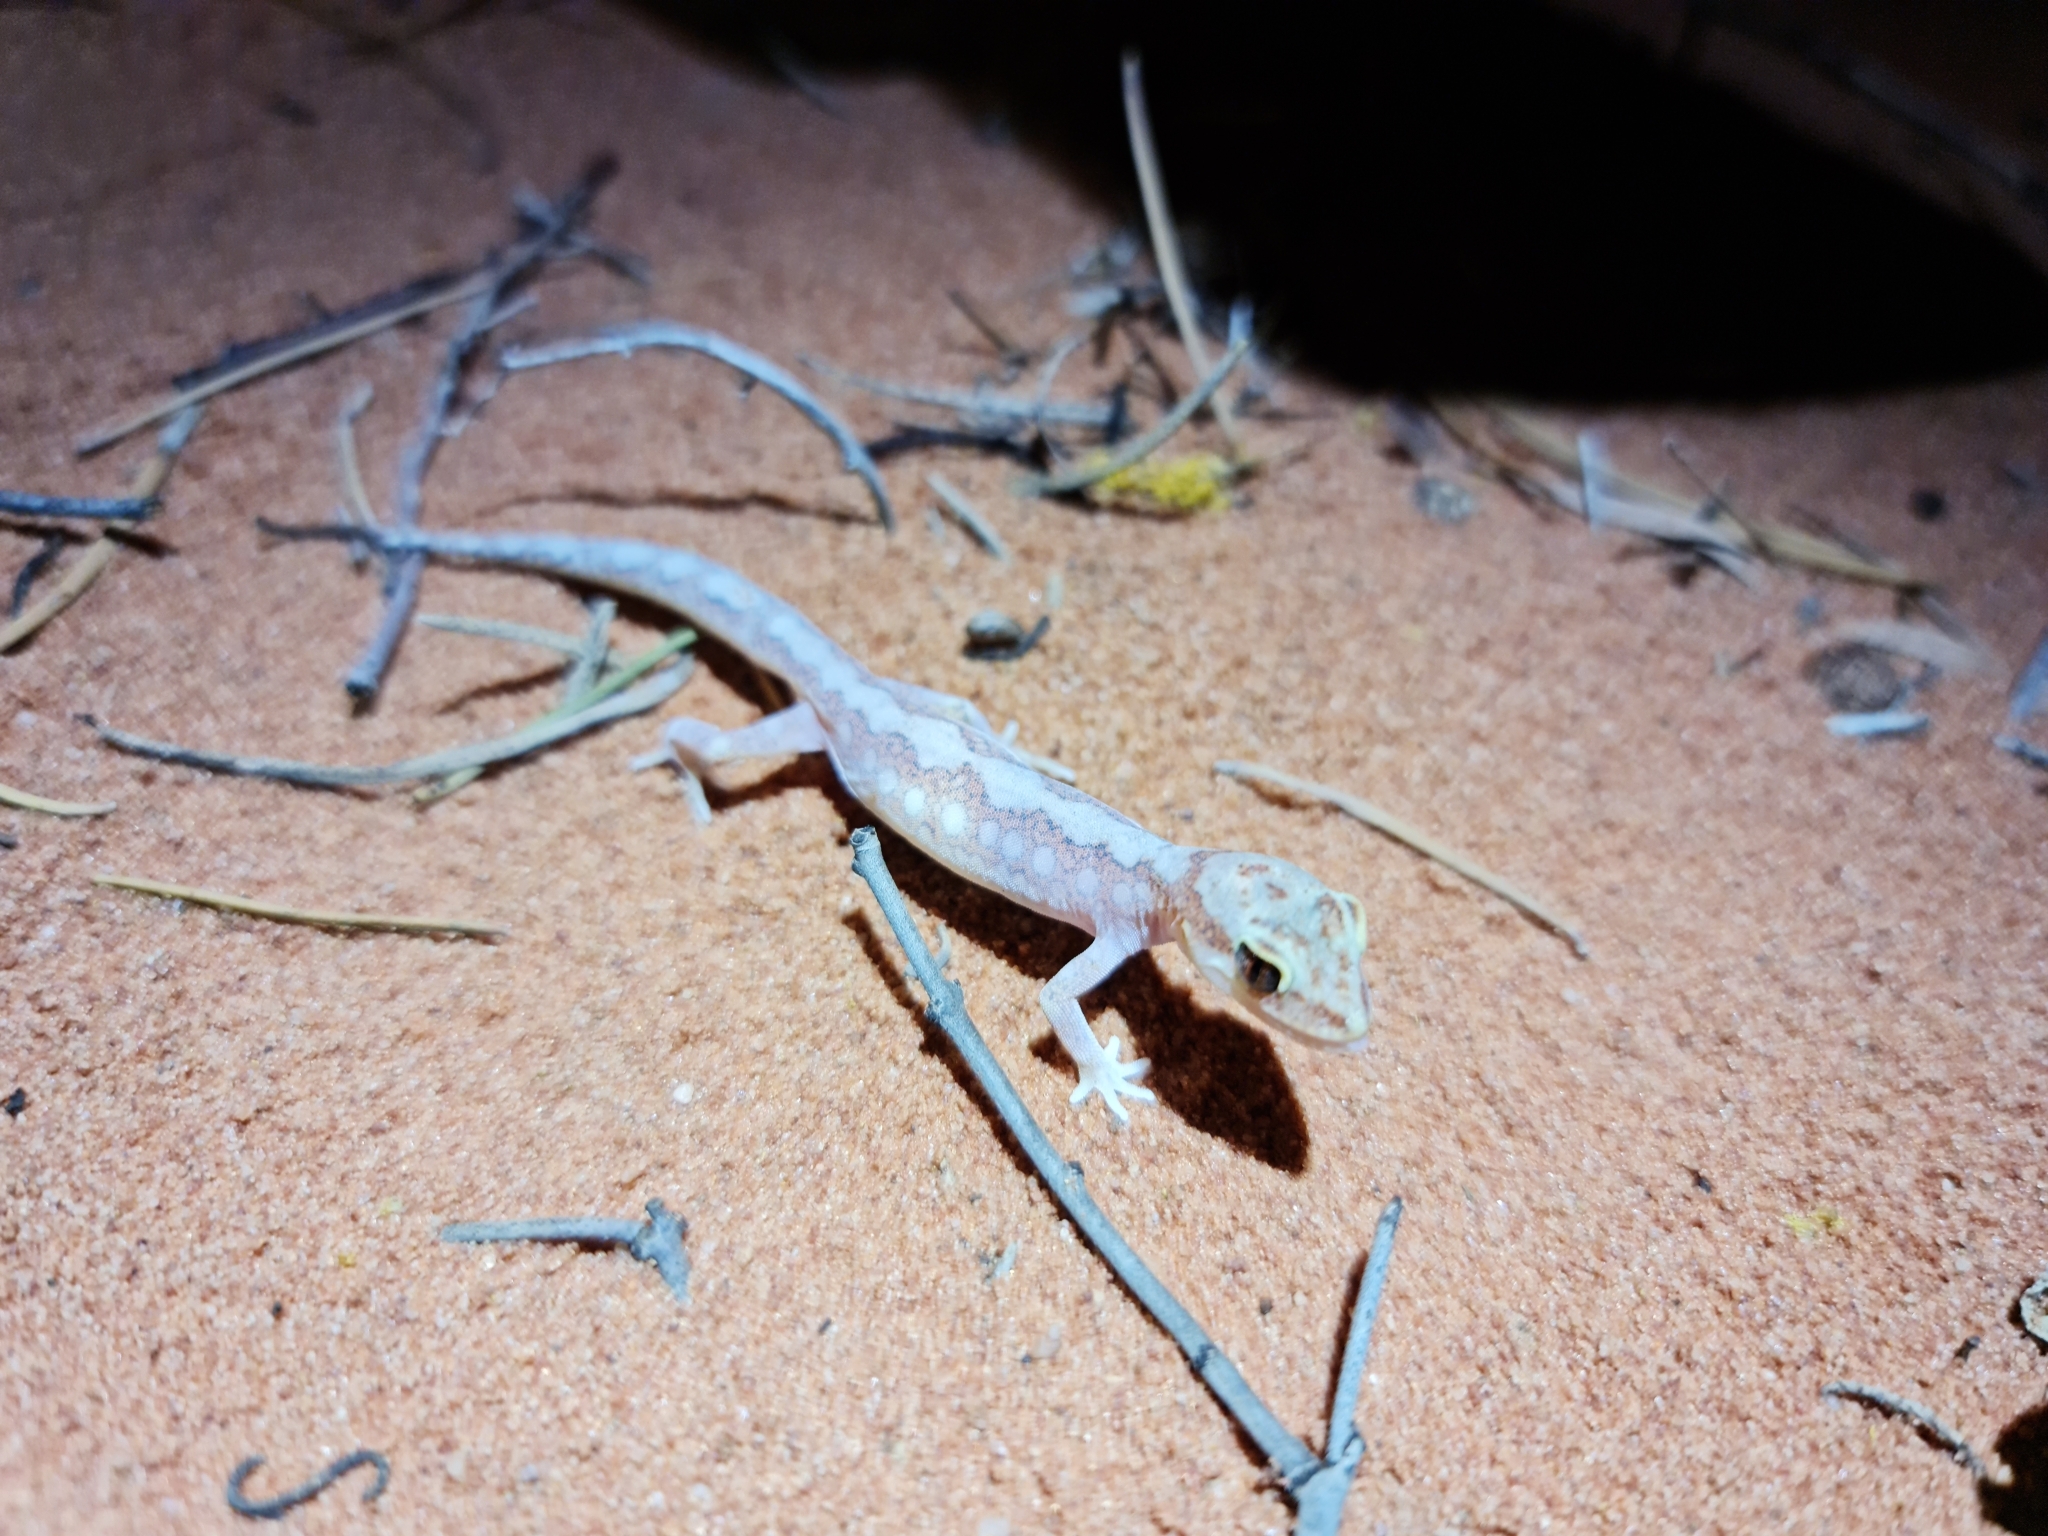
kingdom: Animalia
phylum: Chordata
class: Squamata
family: Diplodactylidae
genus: Lucasium
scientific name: Lucasium damaeum
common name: Beaded gecko
